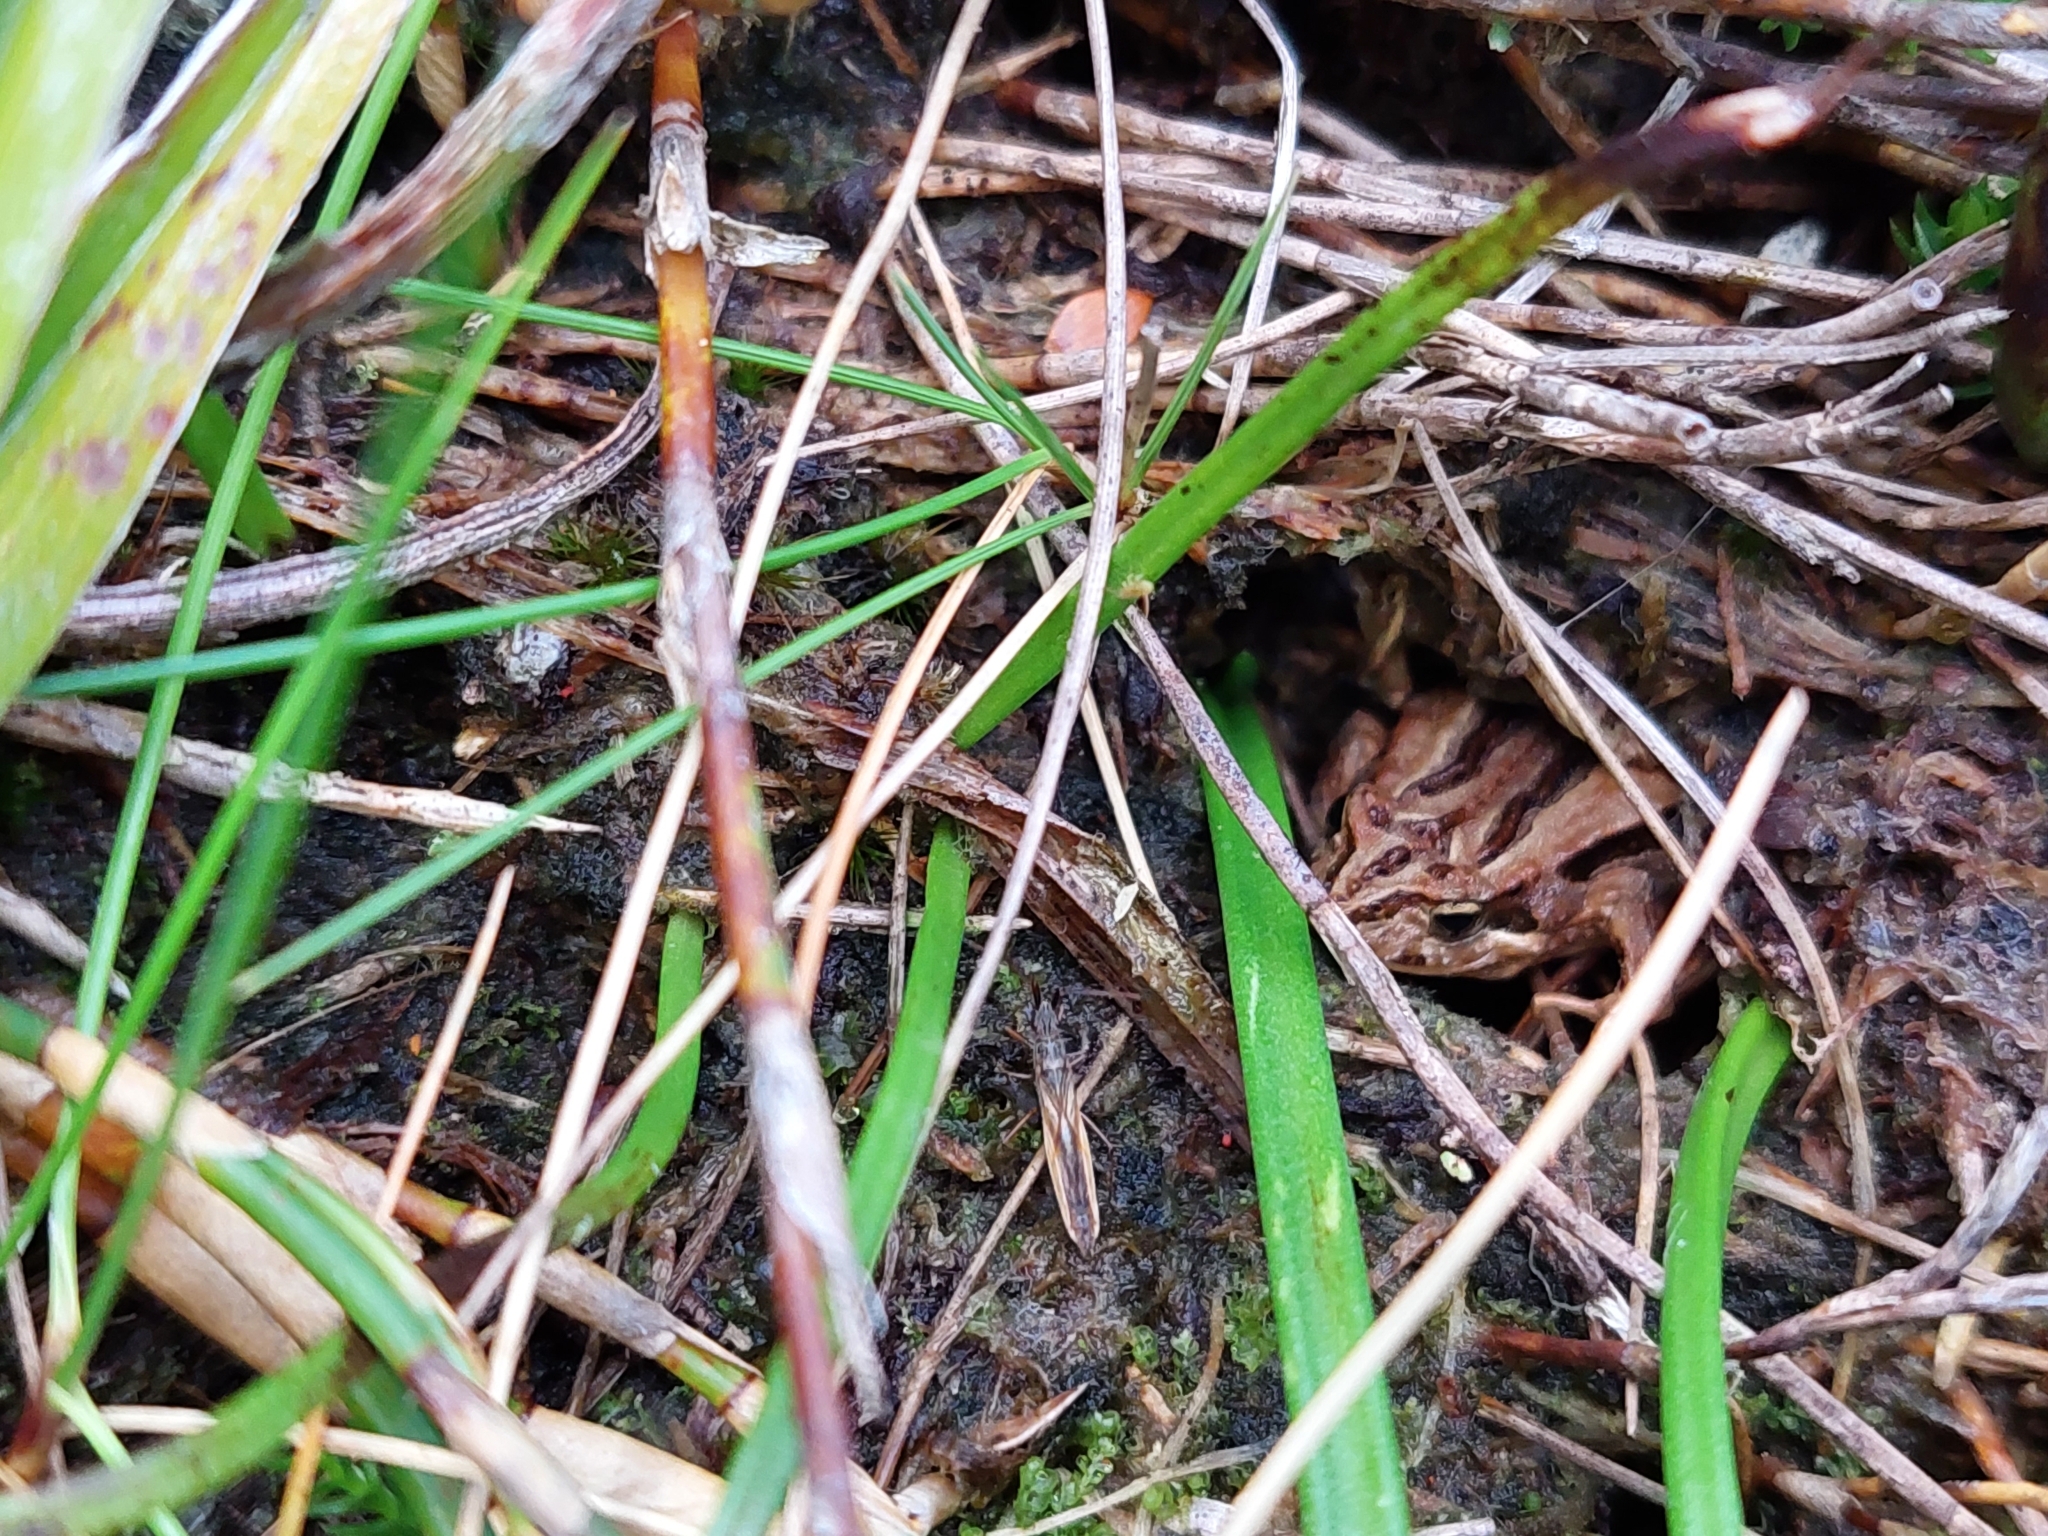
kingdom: Animalia
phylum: Chordata
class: Amphibia
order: Anura
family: Myobatrachidae
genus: Crinia
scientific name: Crinia signifera
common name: Brown froglet
